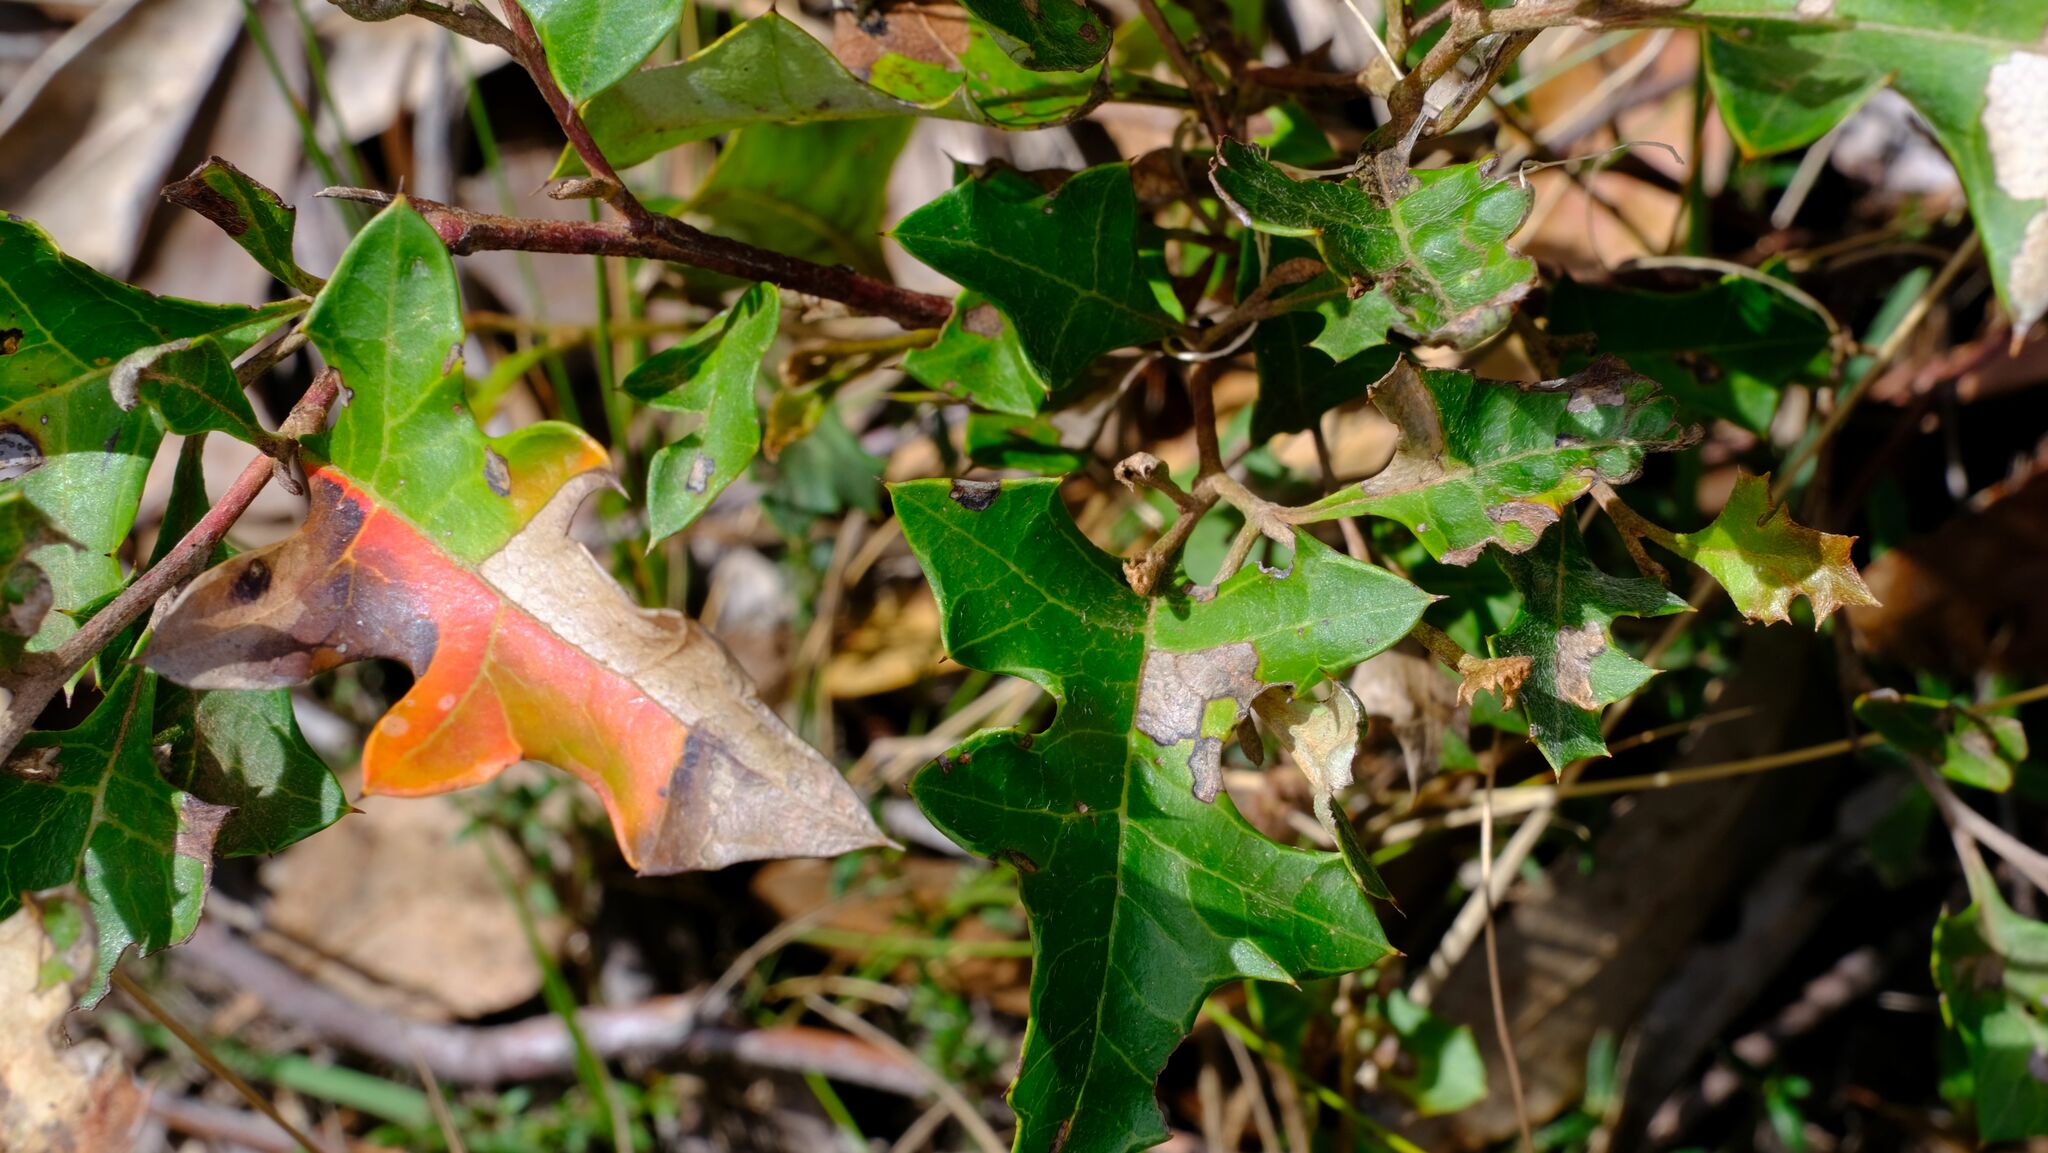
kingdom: Plantae
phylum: Tracheophyta
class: Magnoliopsida
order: Proteales
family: Proteaceae
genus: Grevillea
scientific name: Grevillea steiglitziana
